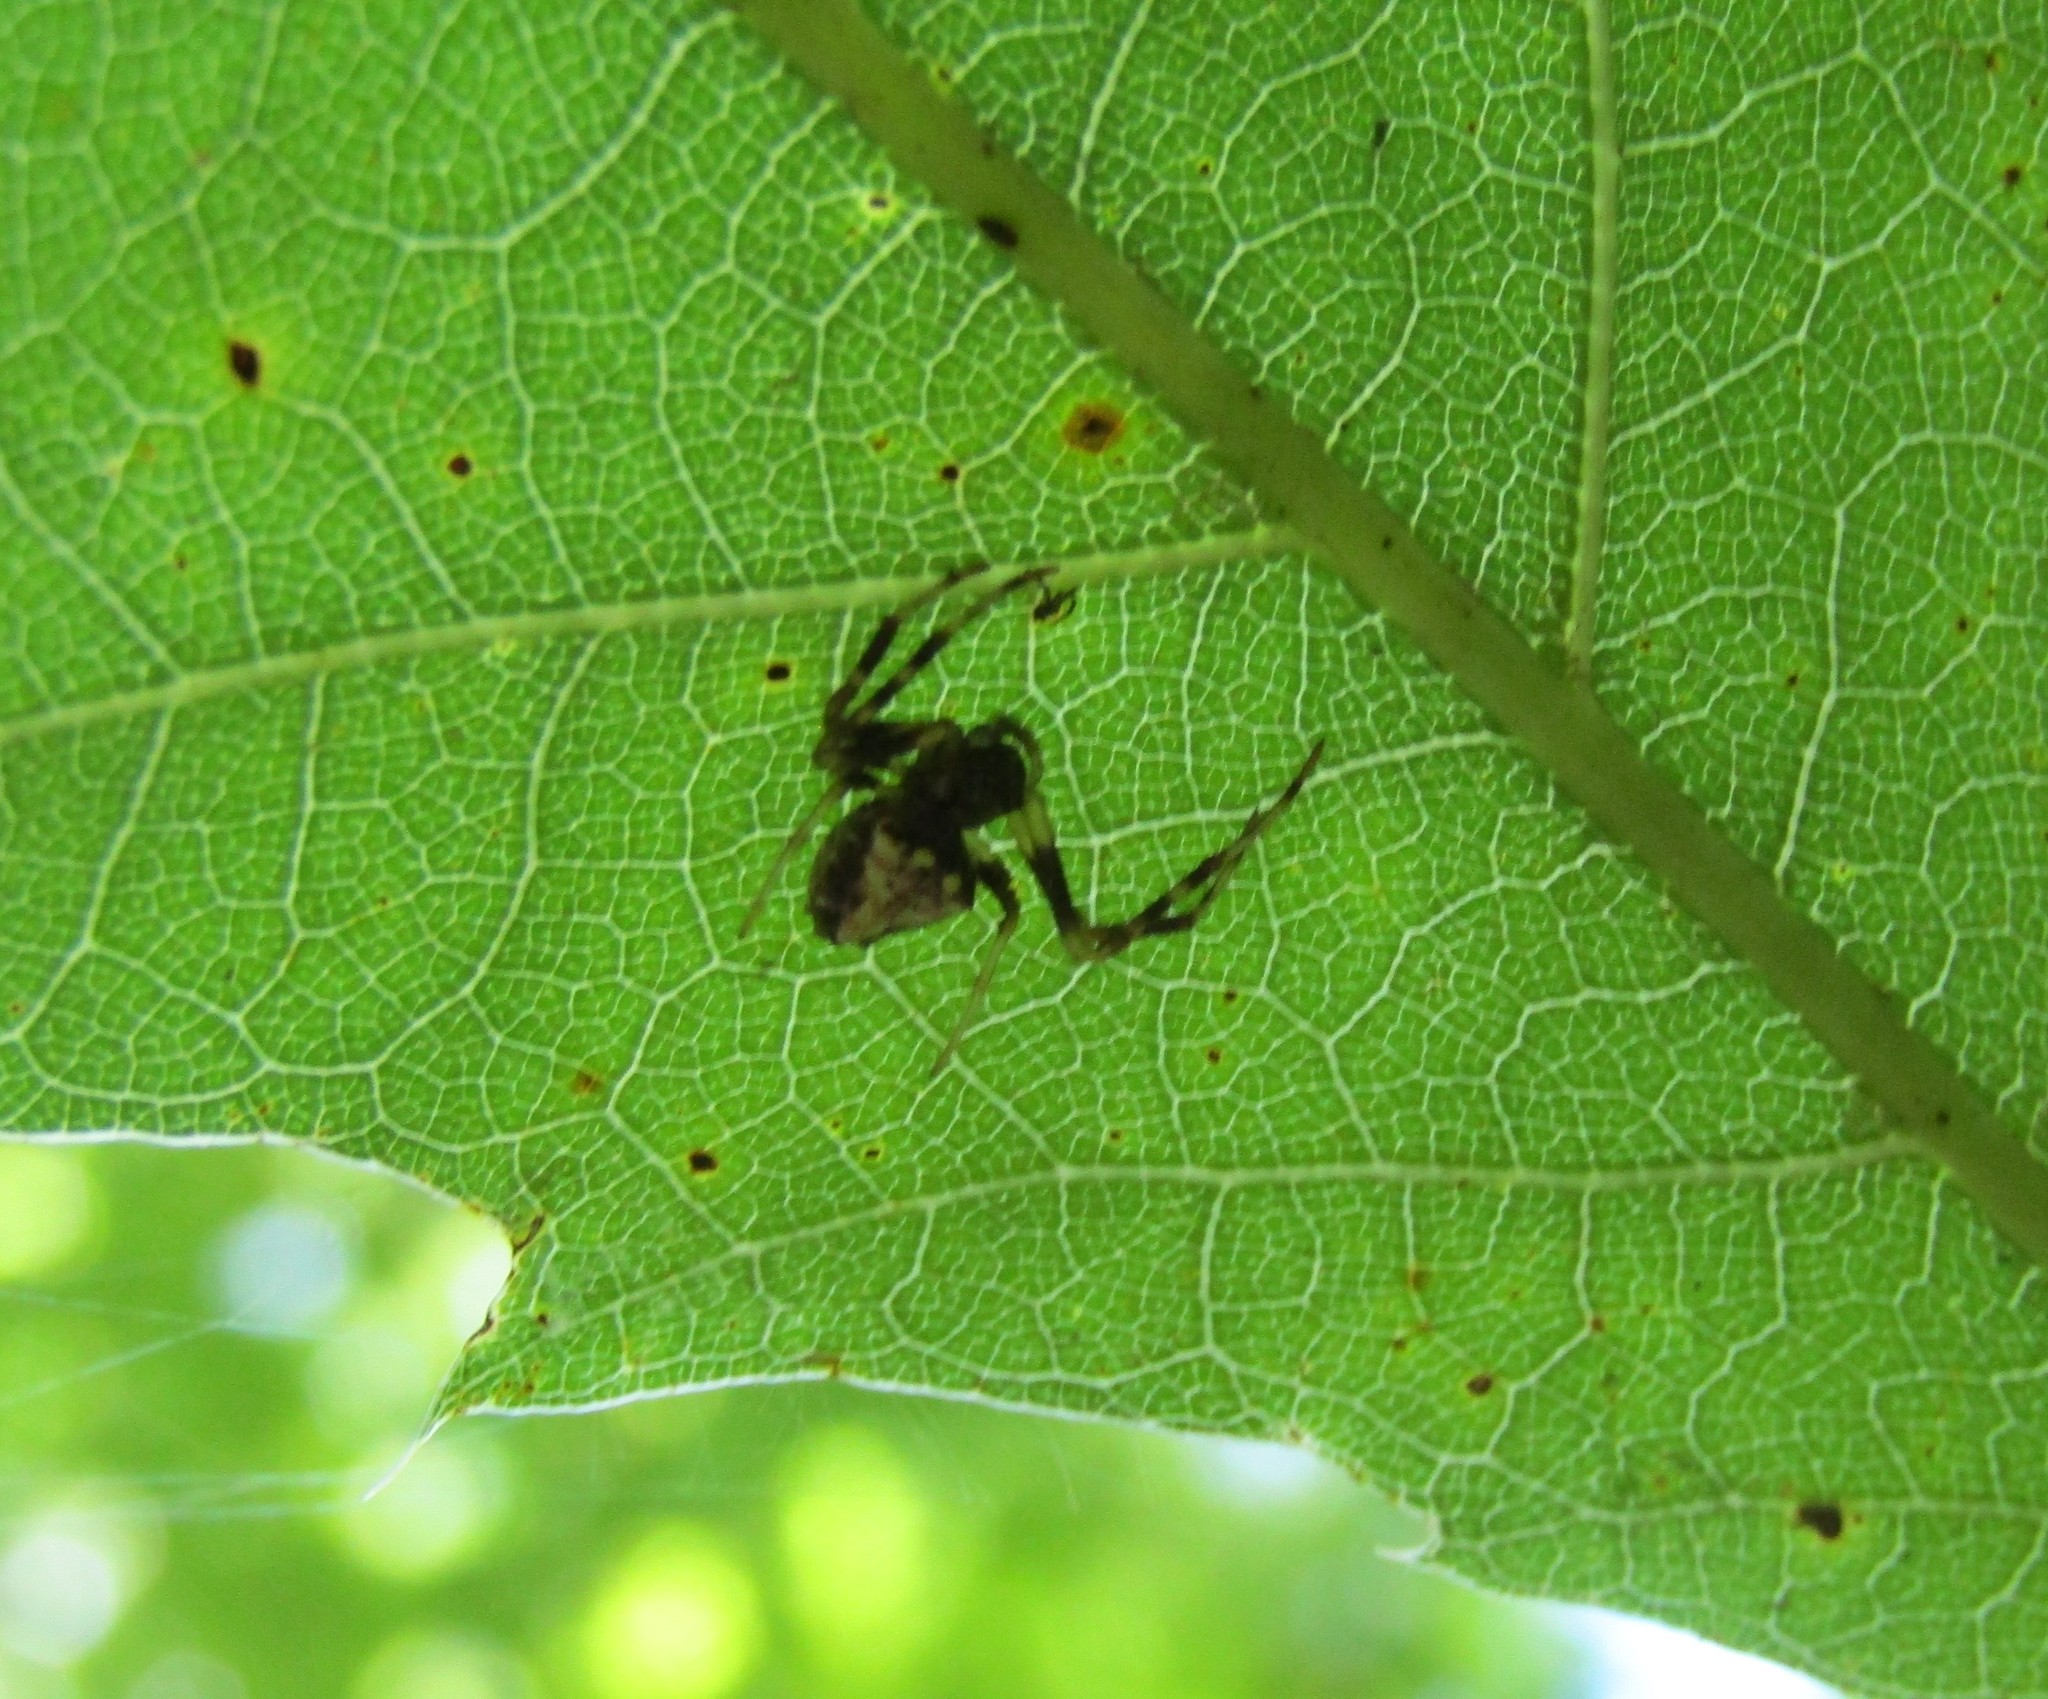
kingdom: Animalia
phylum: Arthropoda
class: Arachnida
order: Araneae
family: Araneidae
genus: Verrucosa
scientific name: Verrucosa arenata
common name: Orb weavers
